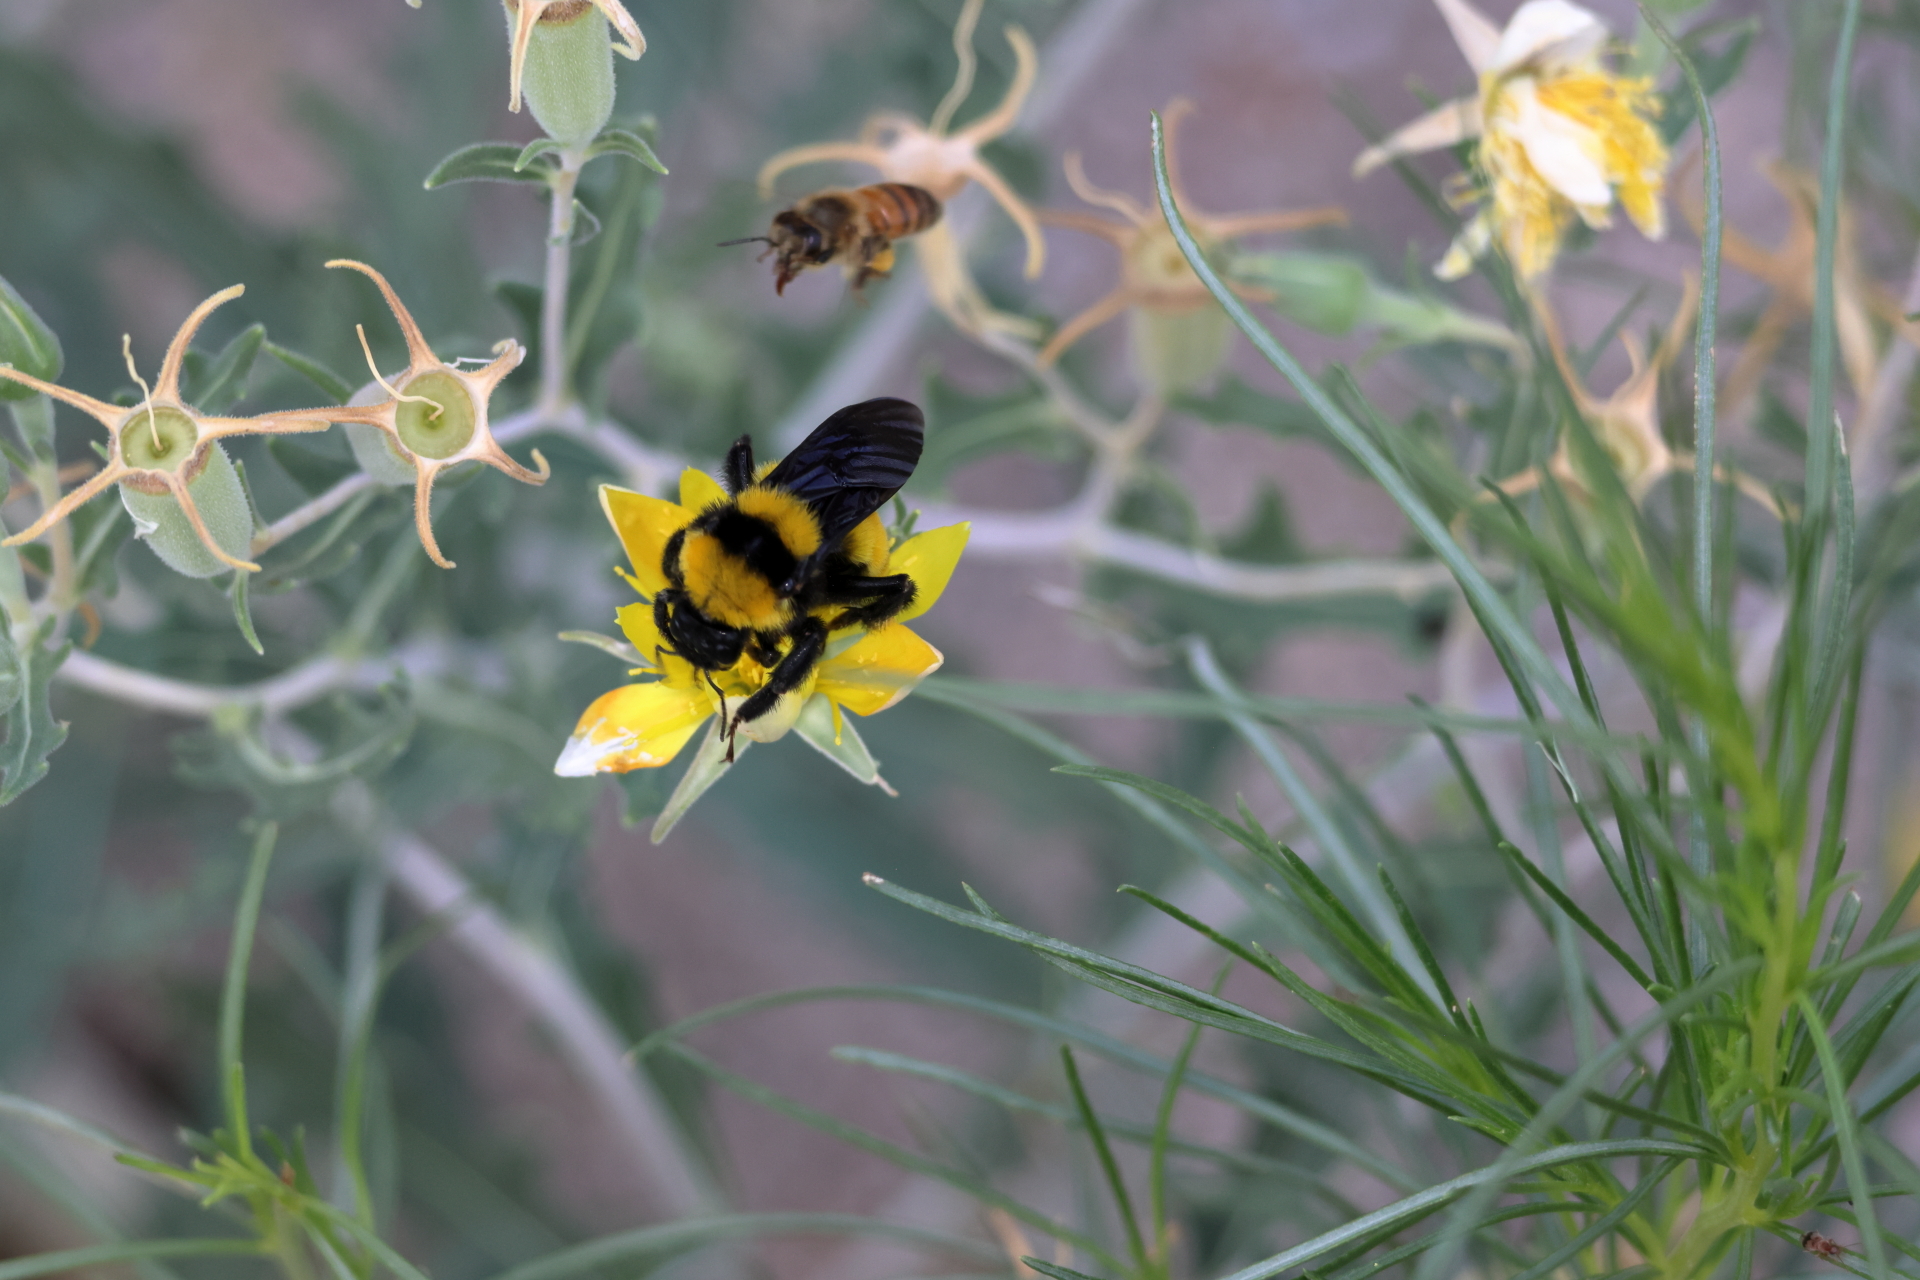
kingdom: Animalia
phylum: Arthropoda
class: Insecta
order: Hymenoptera
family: Apidae
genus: Bombus
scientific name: Bombus sonorus
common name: Sonoran bumble bee
